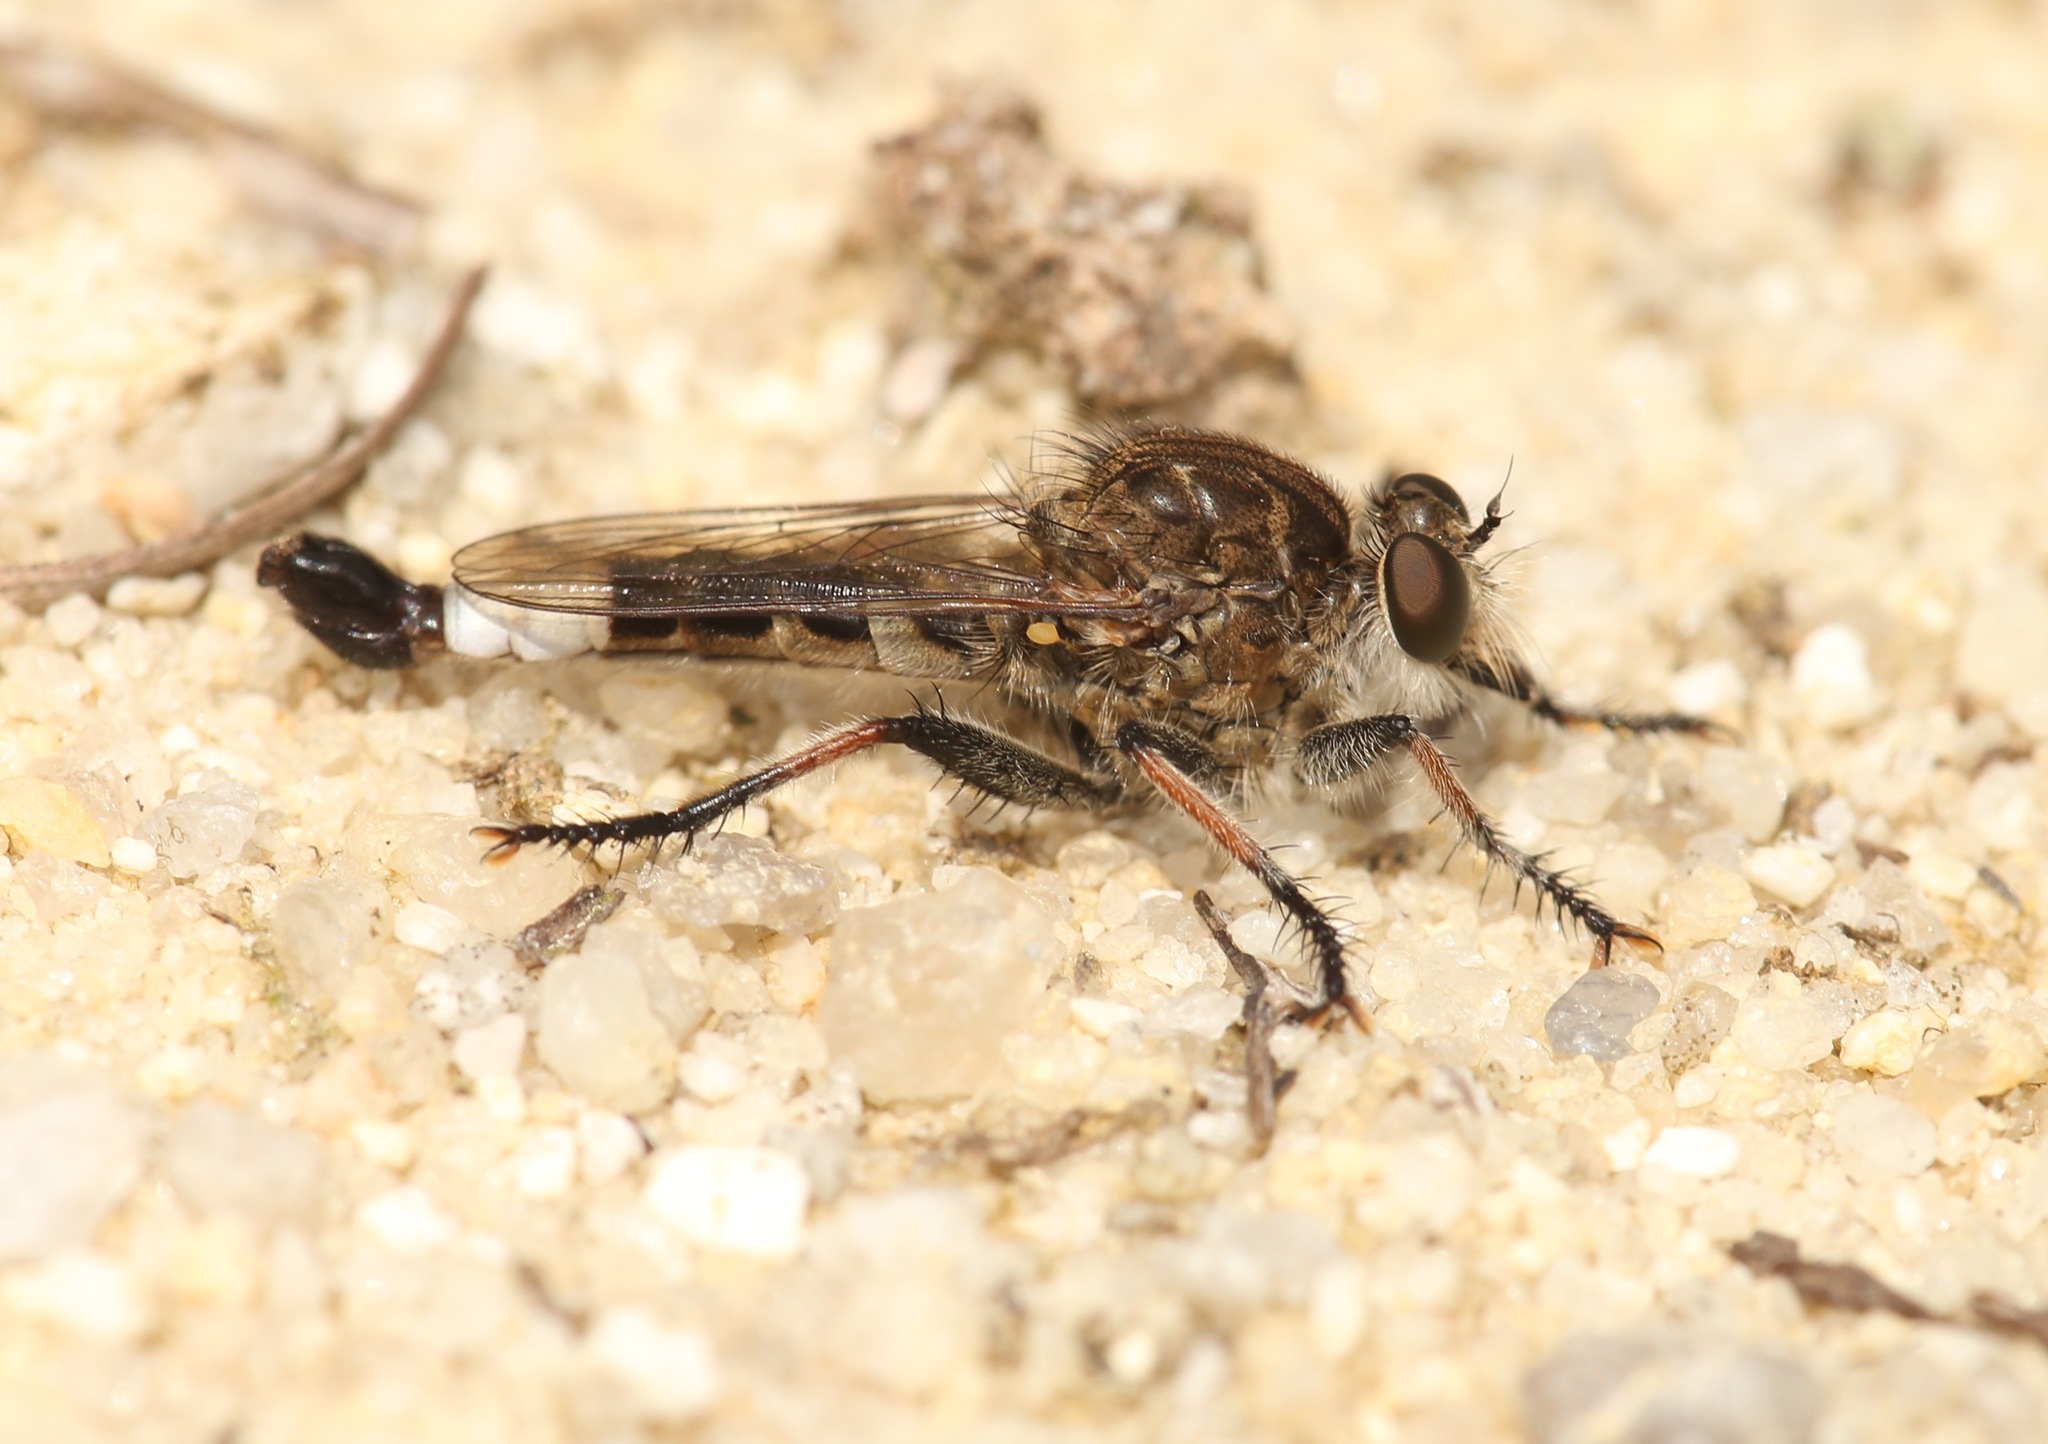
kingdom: Animalia
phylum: Arthropoda
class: Insecta
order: Diptera
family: Asilidae
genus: Efferia
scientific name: Efferia albibarbis
